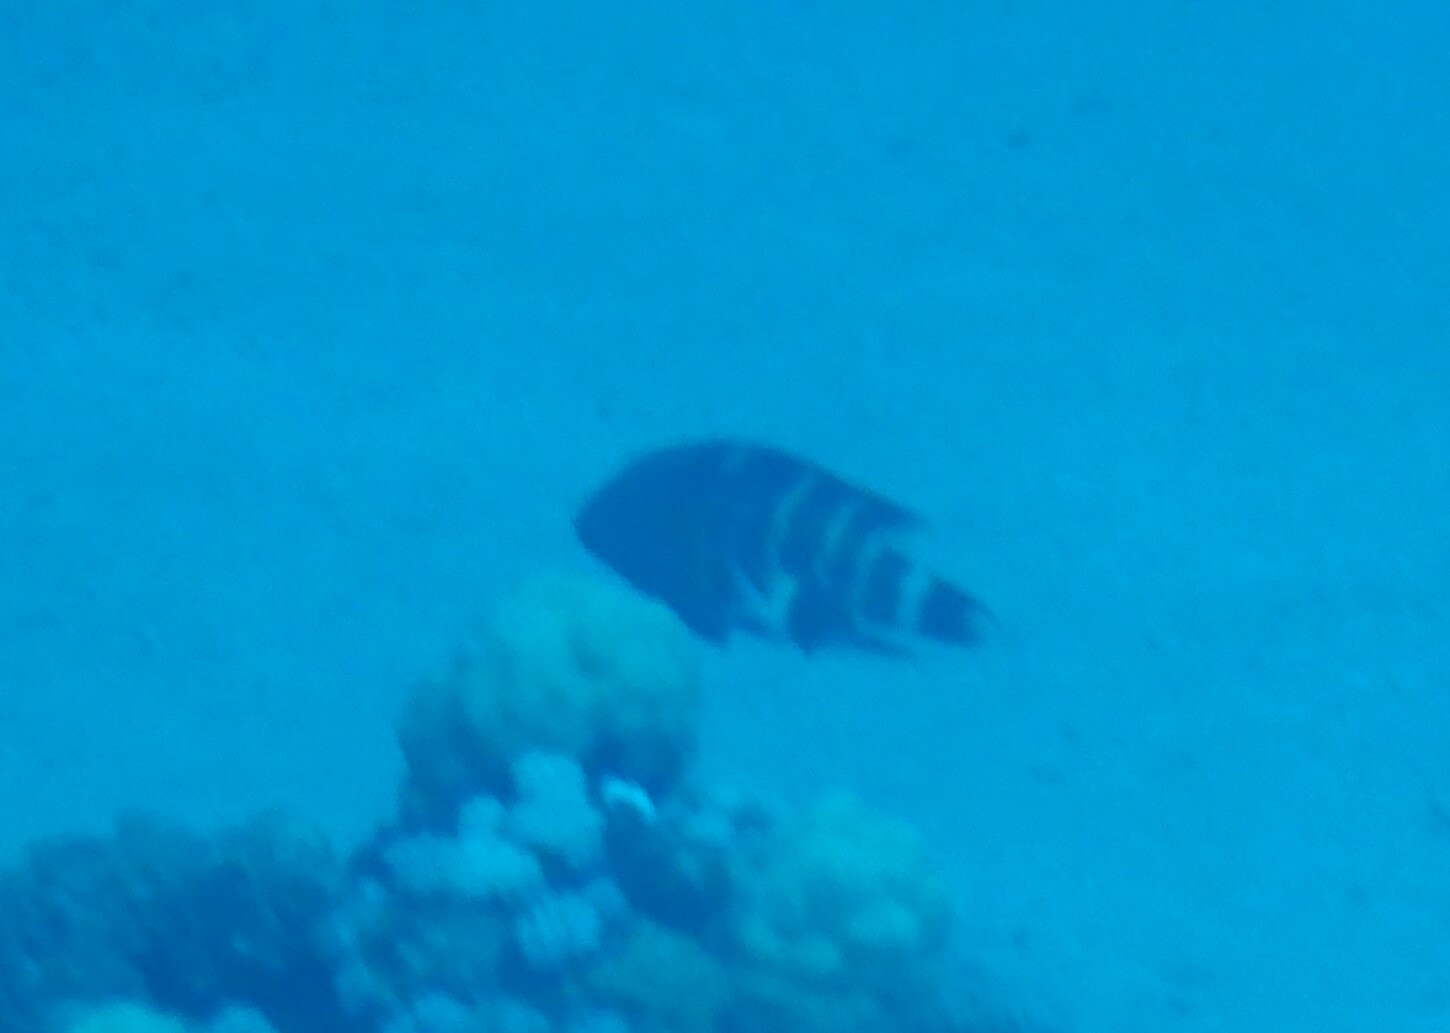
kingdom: Animalia
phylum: Chordata
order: Perciformes
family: Labridae
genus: Cheilinus
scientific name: Cheilinus fasciatus
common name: Red-breasted wrasse
